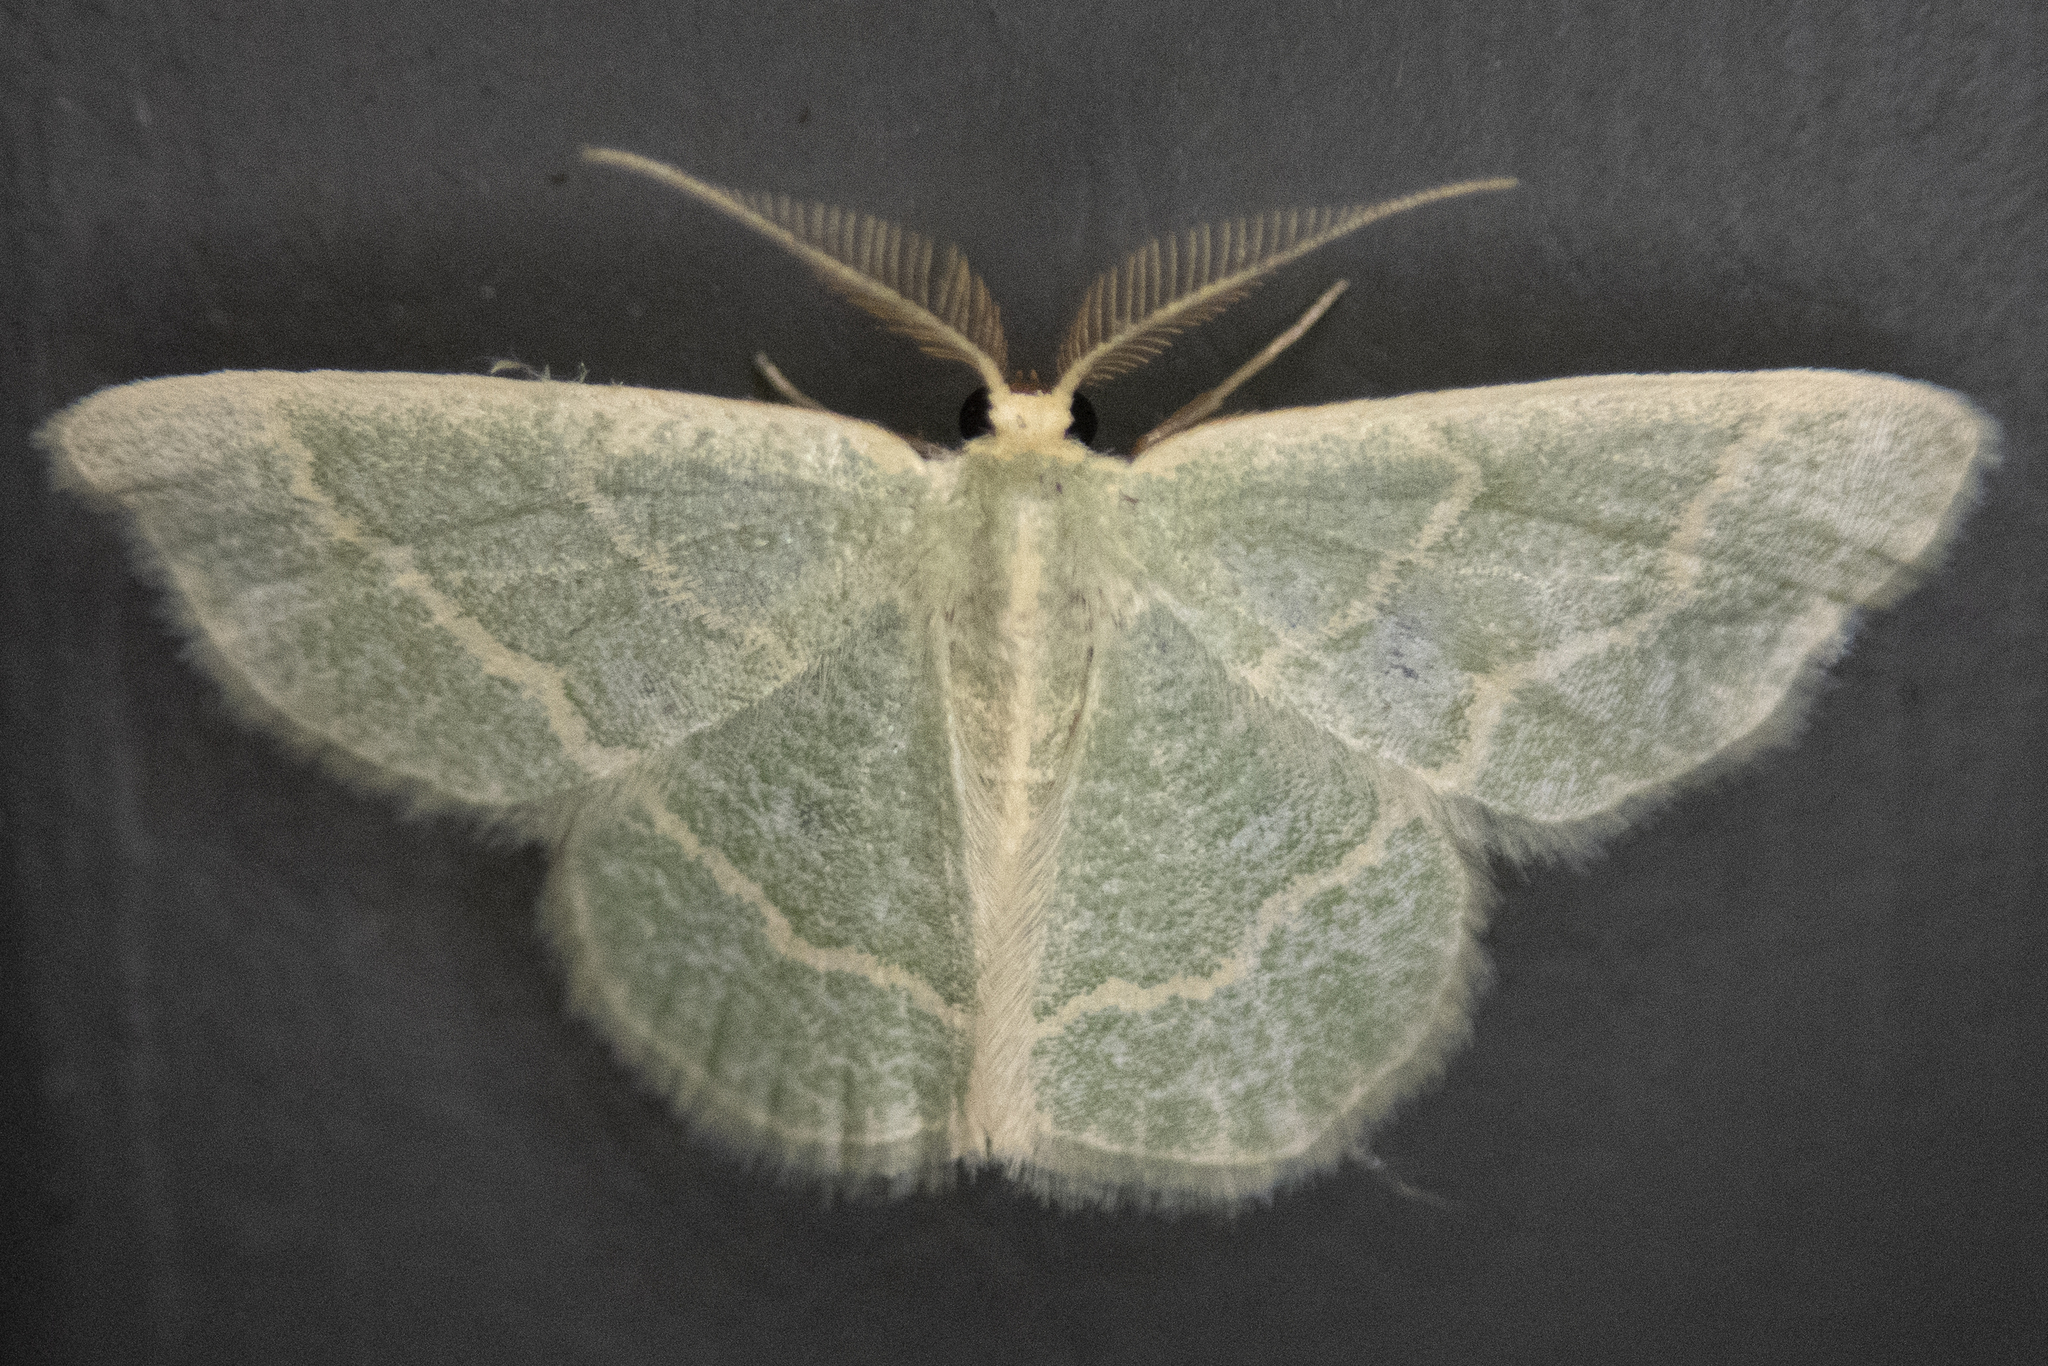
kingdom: Animalia
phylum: Arthropoda
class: Insecta
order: Lepidoptera
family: Geometridae
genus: Chlorochlamys
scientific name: Chlorochlamys chloroleucaria
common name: Blackberry looper
